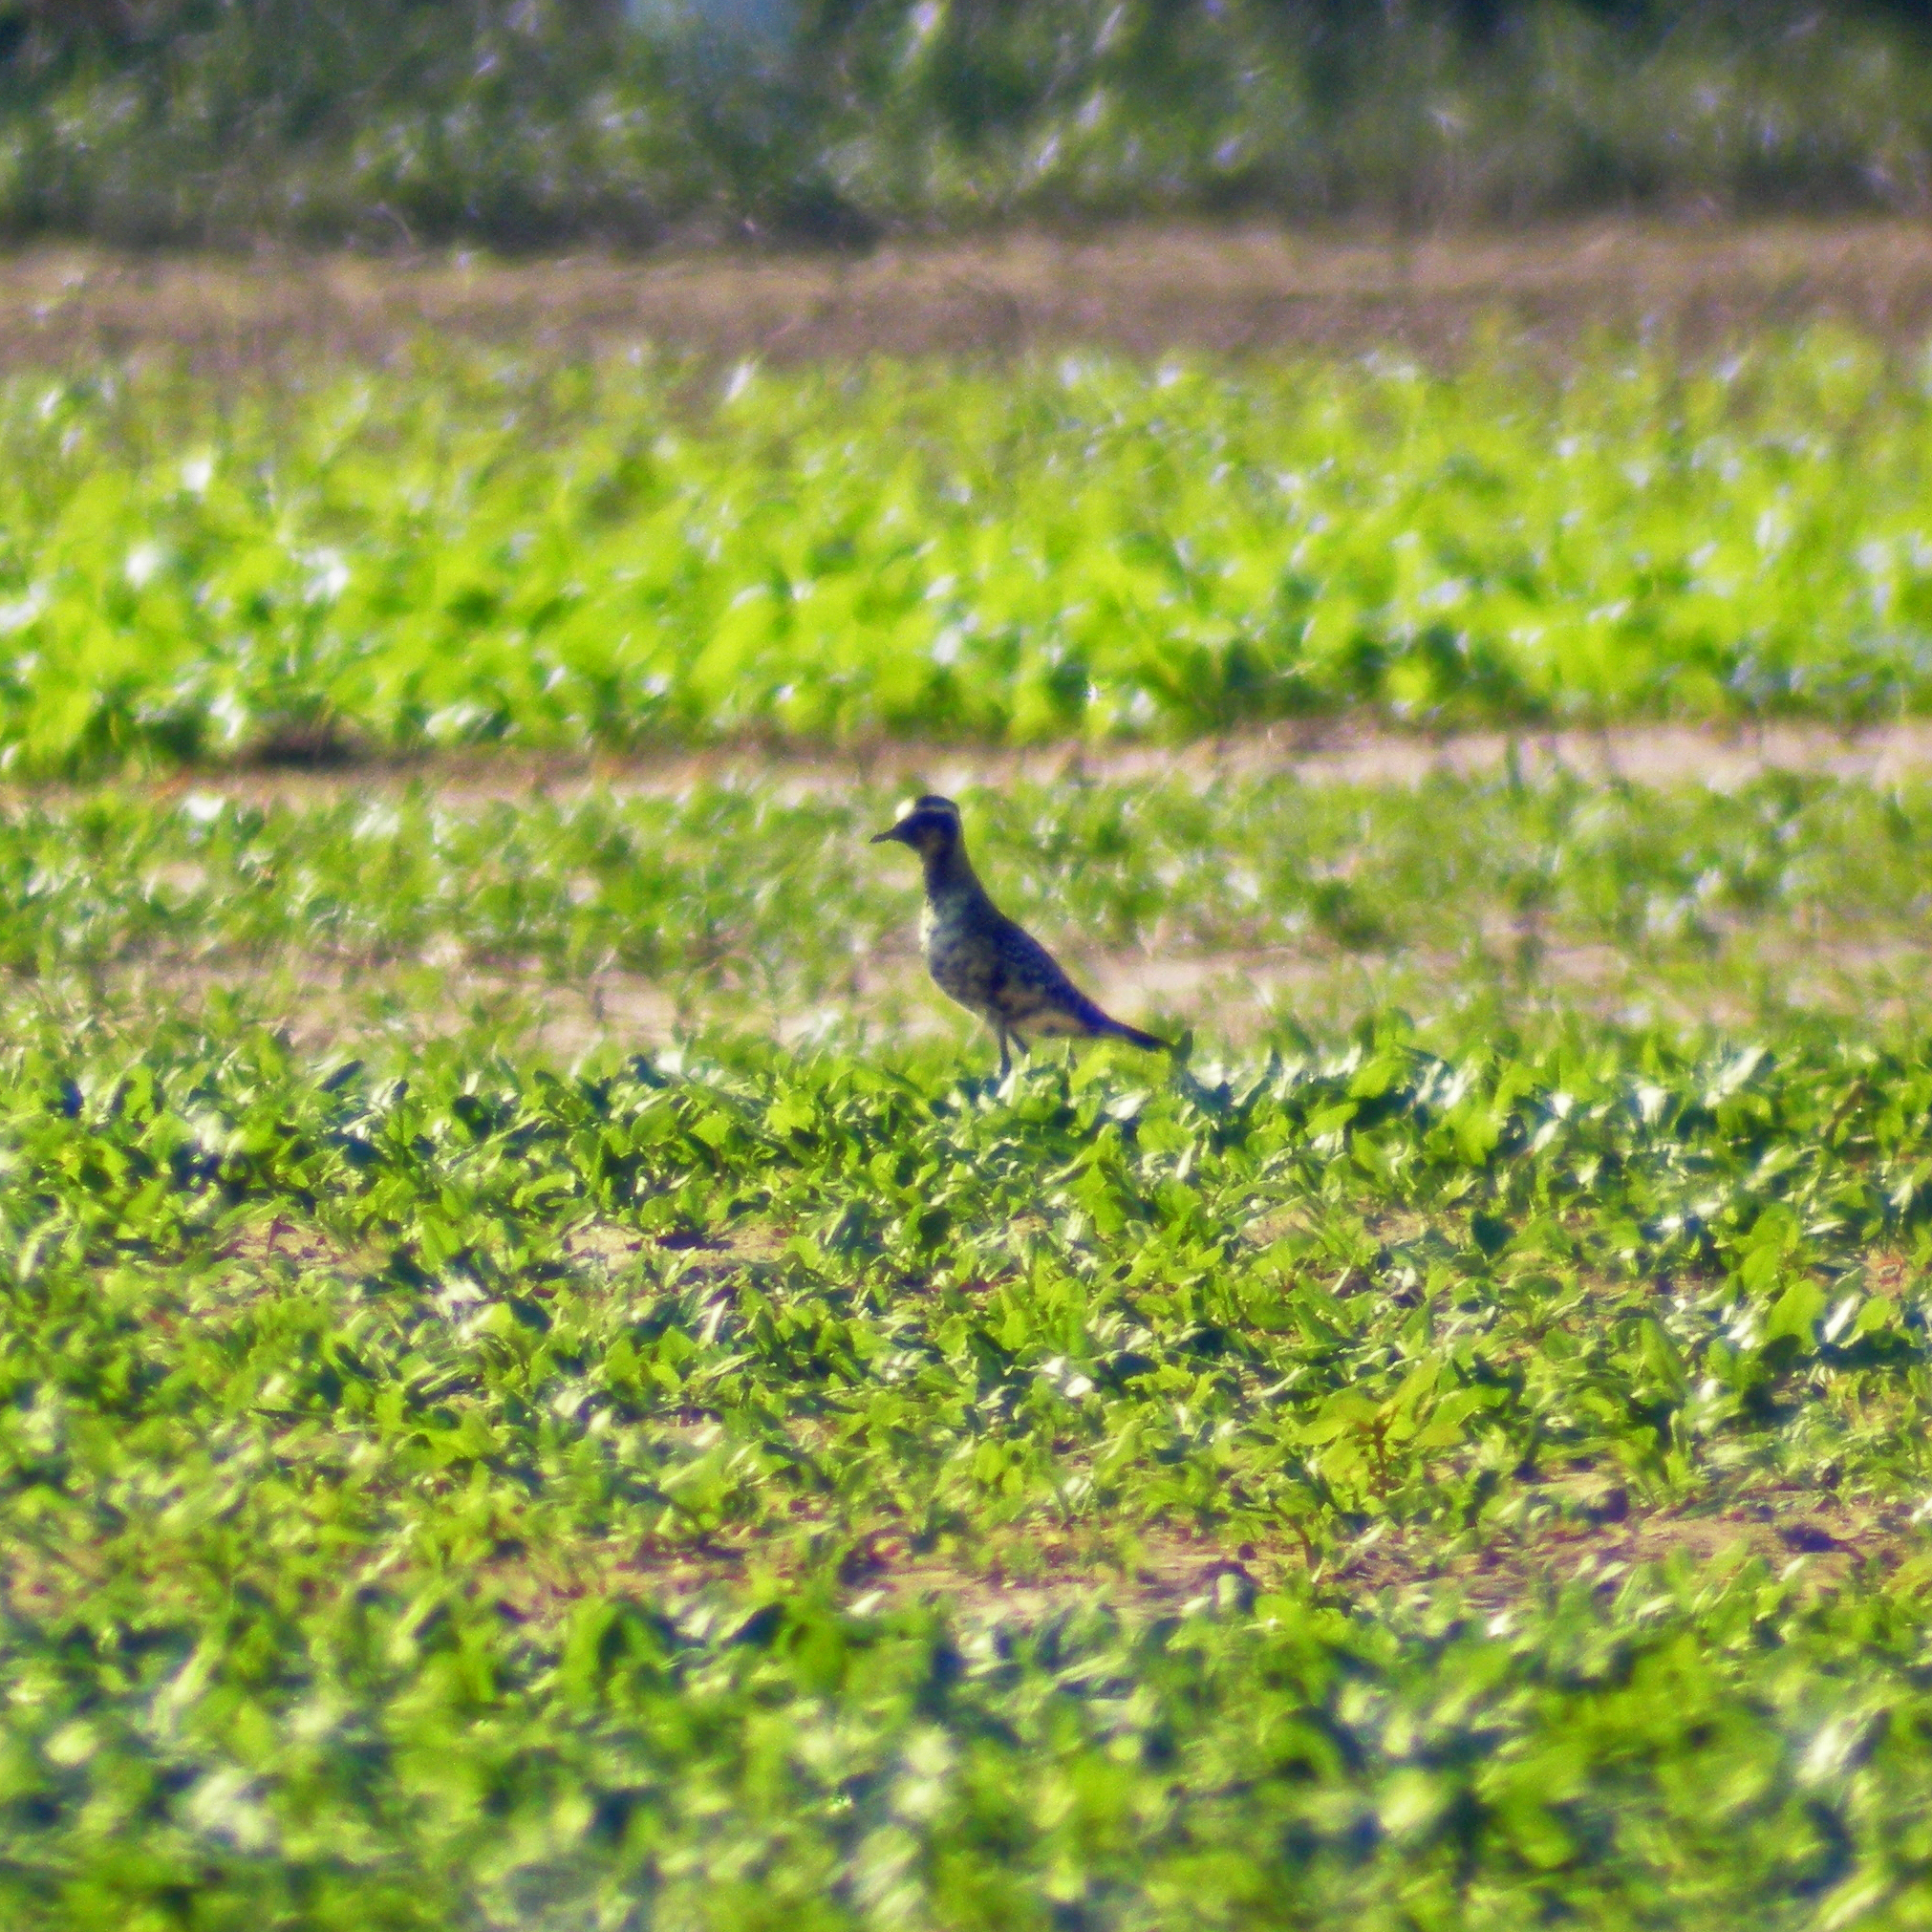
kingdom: Animalia
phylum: Chordata
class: Aves
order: Charadriiformes
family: Charadriidae
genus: Pluvialis
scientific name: Pluvialis dominica
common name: American golden plover
